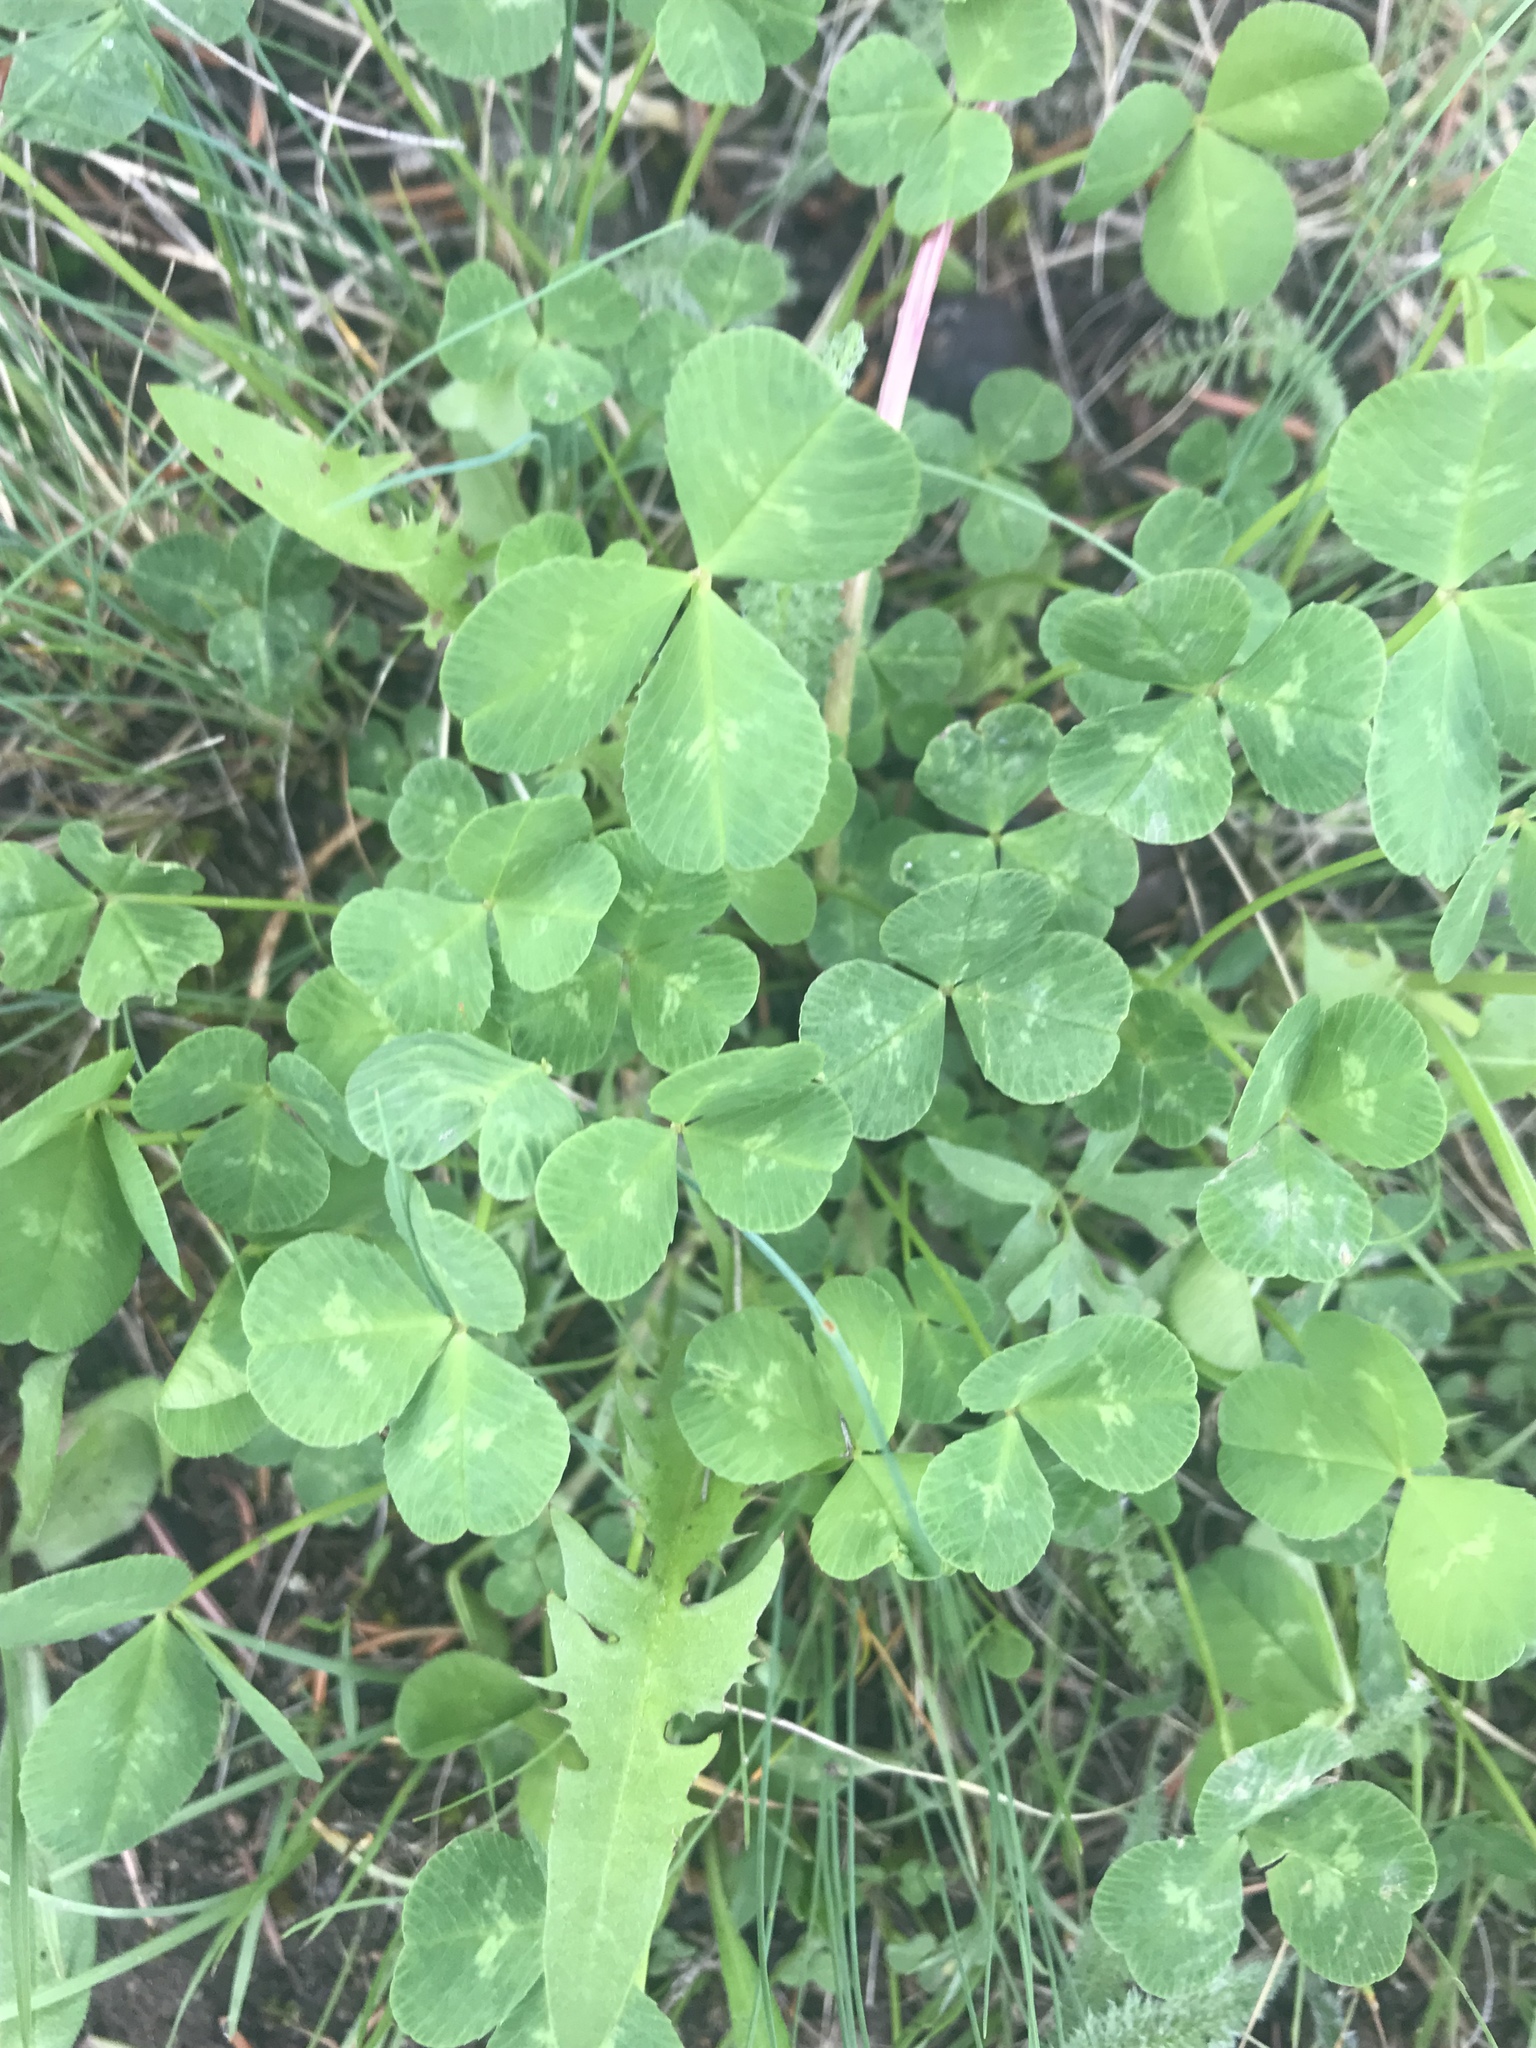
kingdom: Plantae
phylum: Tracheophyta
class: Magnoliopsida
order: Fabales
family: Fabaceae
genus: Trifolium
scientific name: Trifolium repens
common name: White clover
